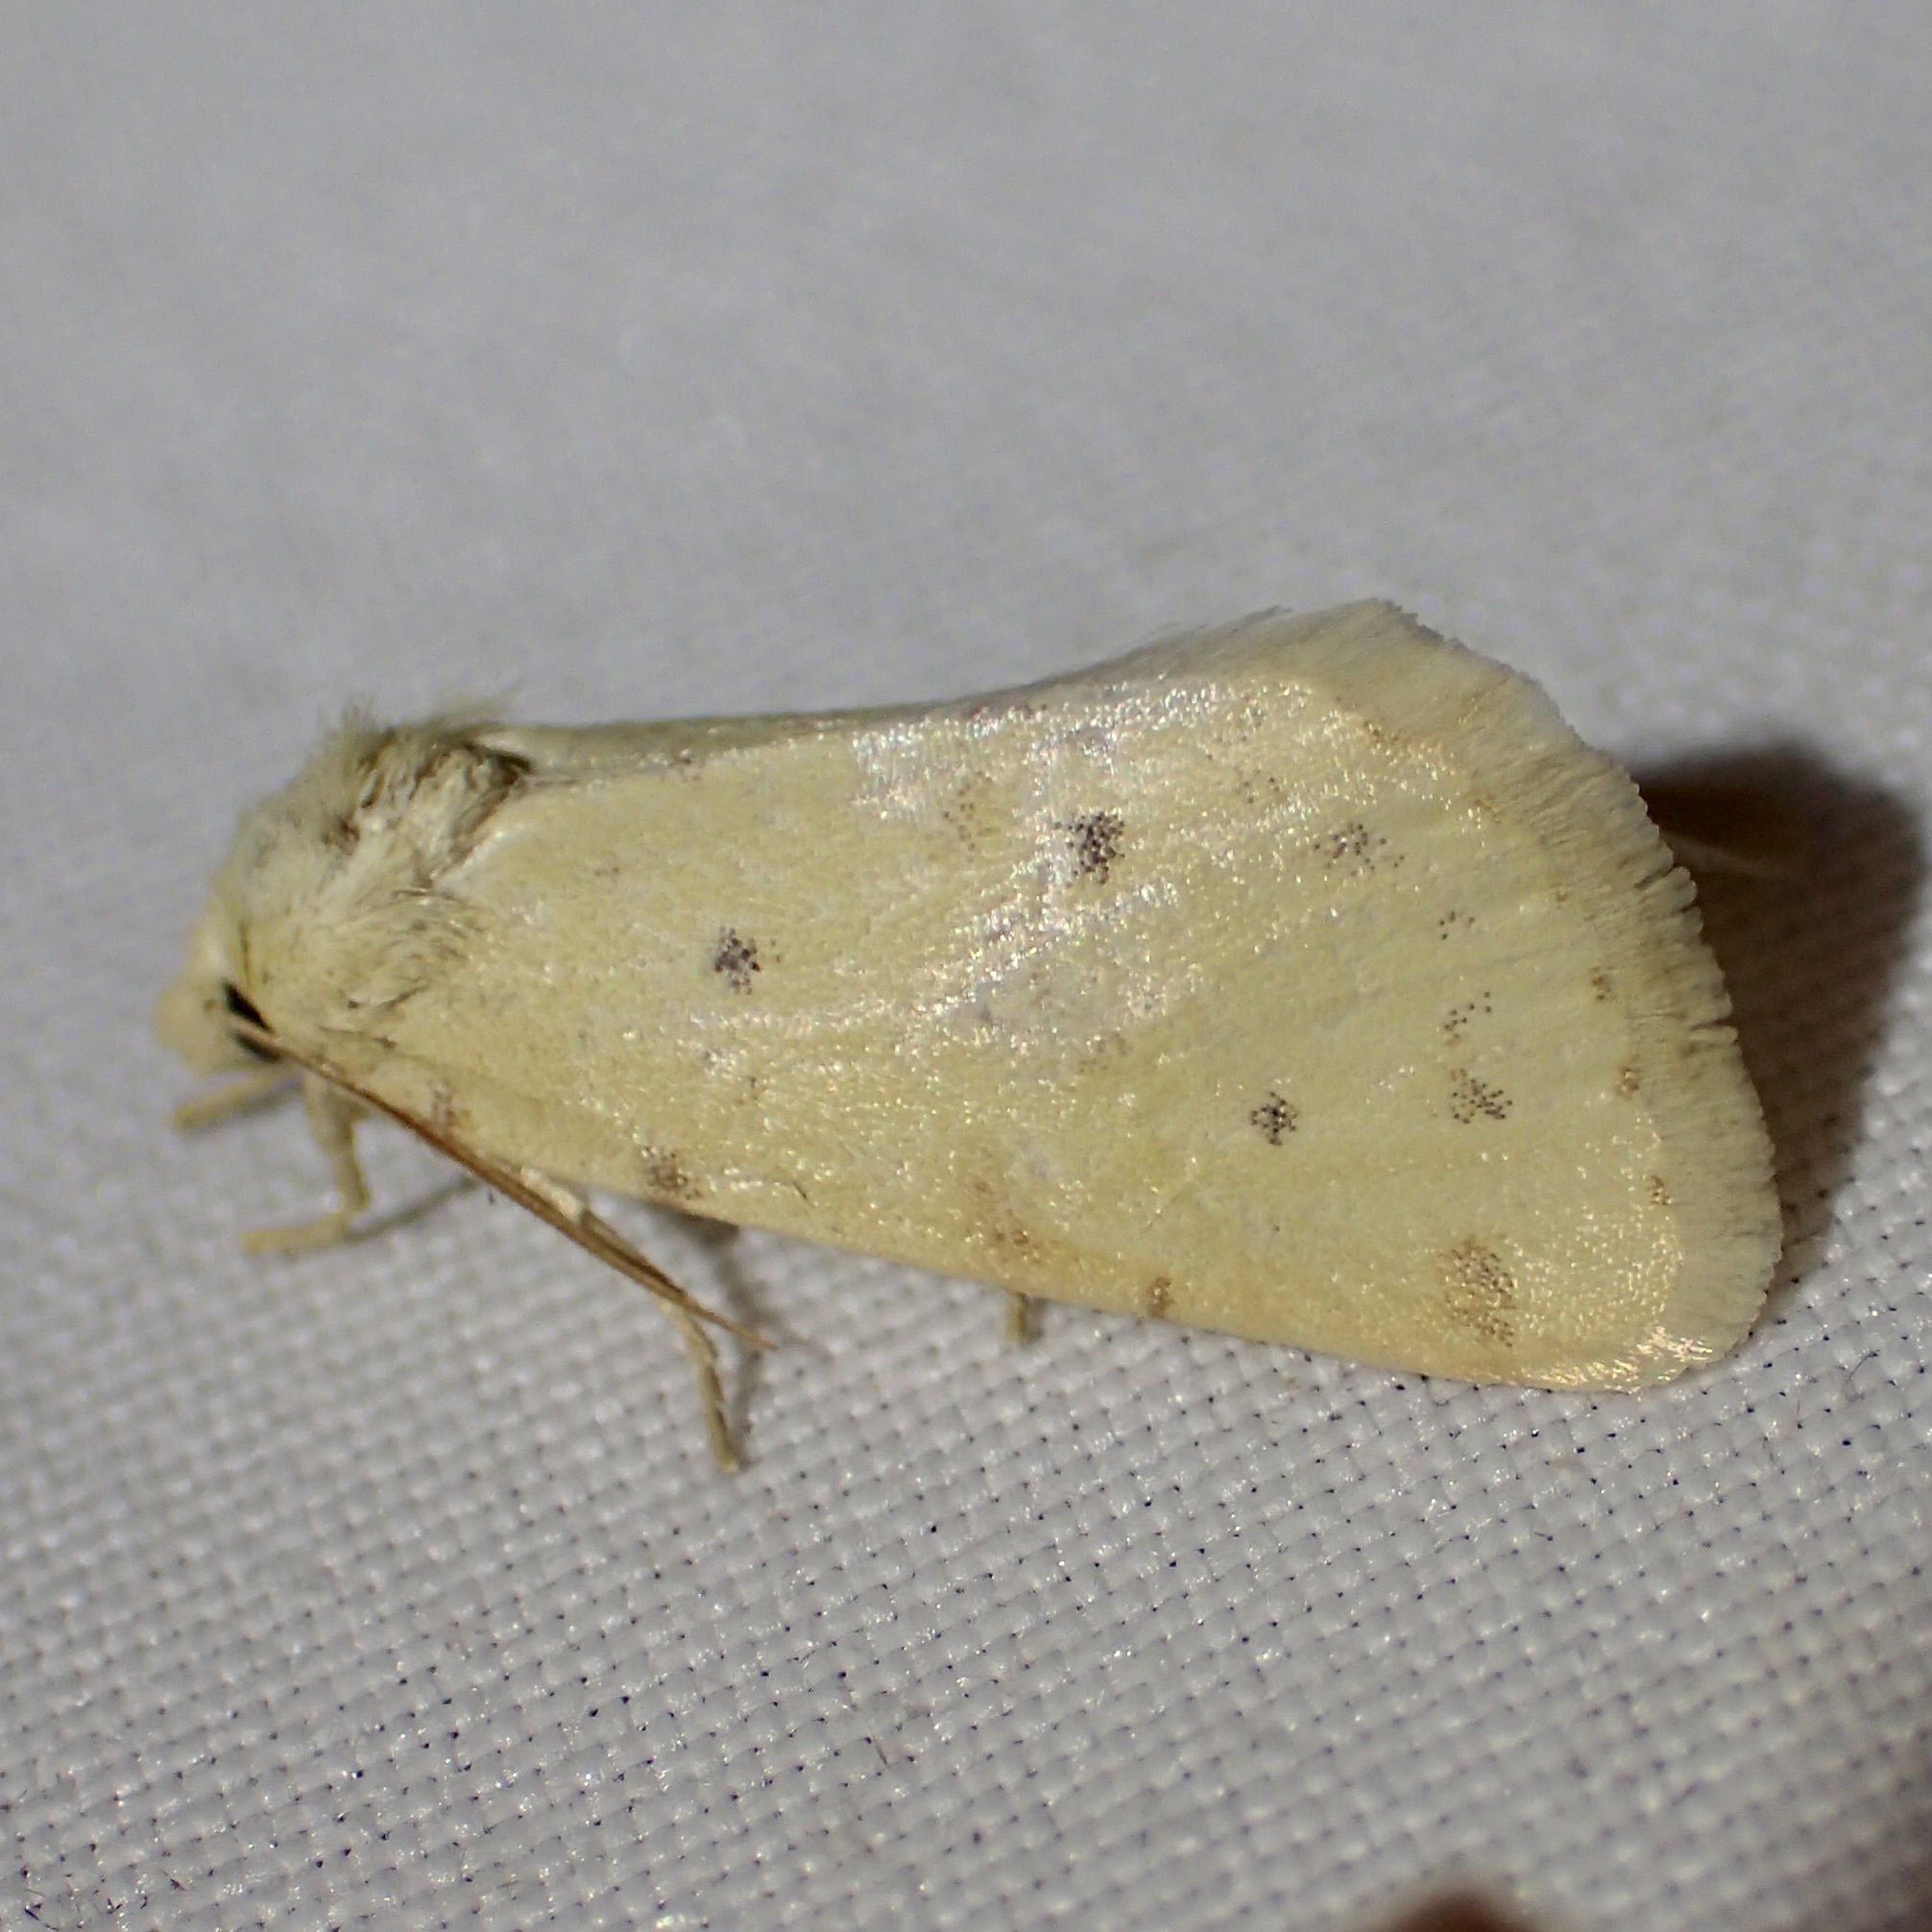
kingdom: Animalia
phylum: Arthropoda
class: Insecta
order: Lepidoptera
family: Noctuidae
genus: Azenia
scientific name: Azenia implora
